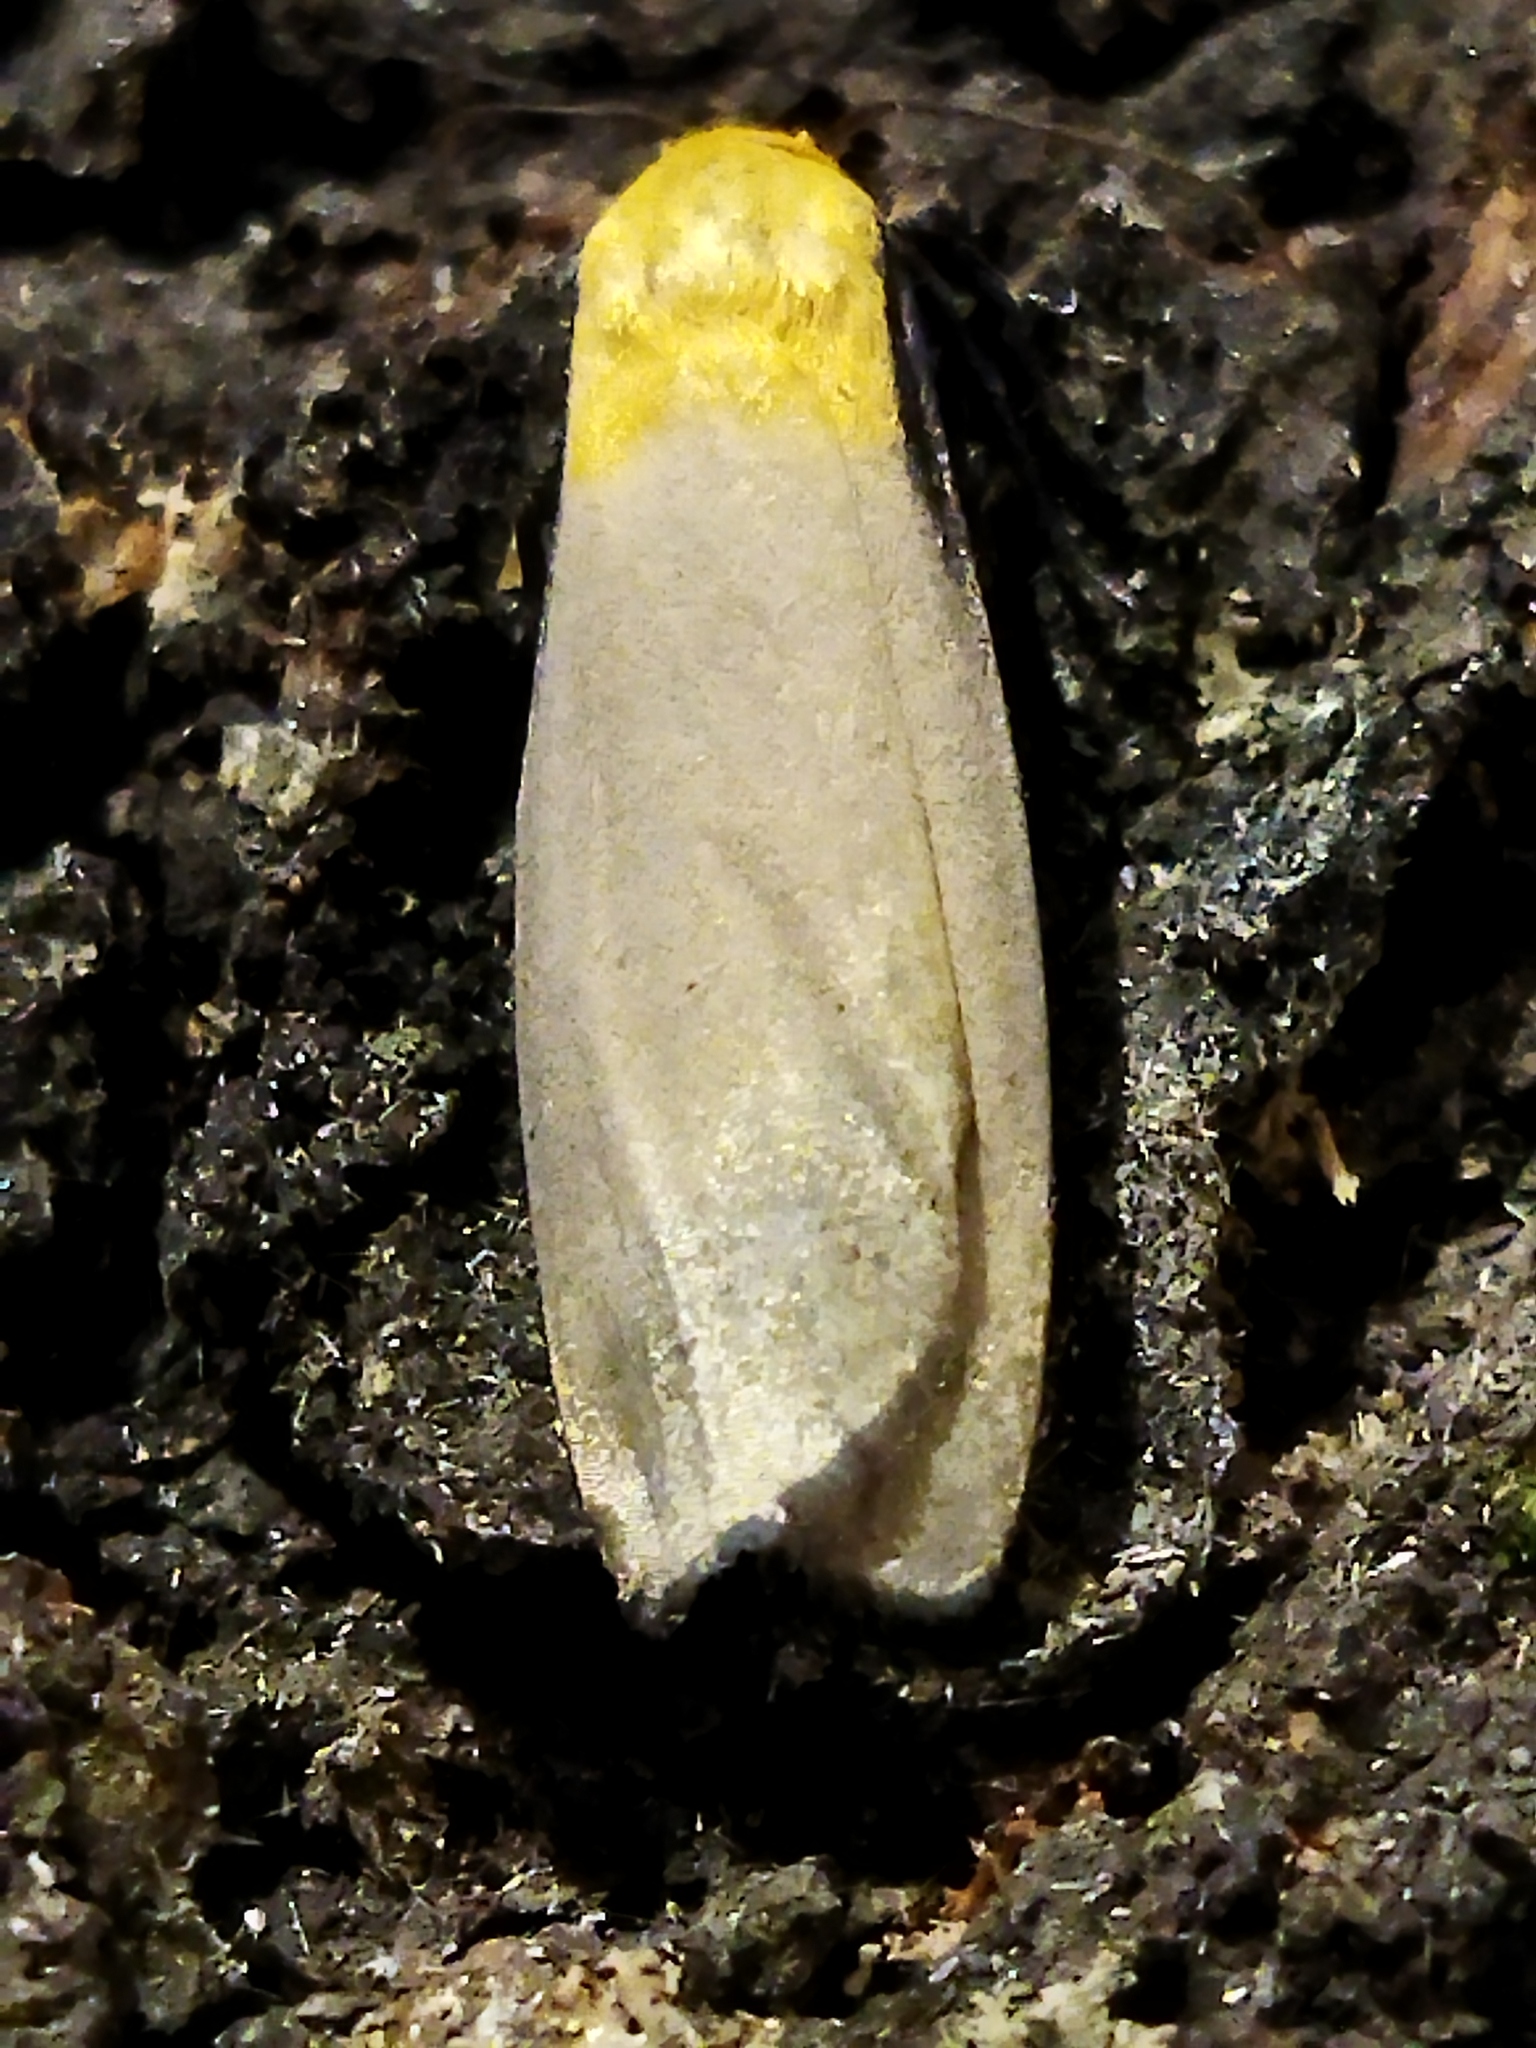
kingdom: Animalia
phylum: Arthropoda
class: Insecta
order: Lepidoptera
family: Erebidae
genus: Lithosia
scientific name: Lithosia quadra
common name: Four-spotted footman
